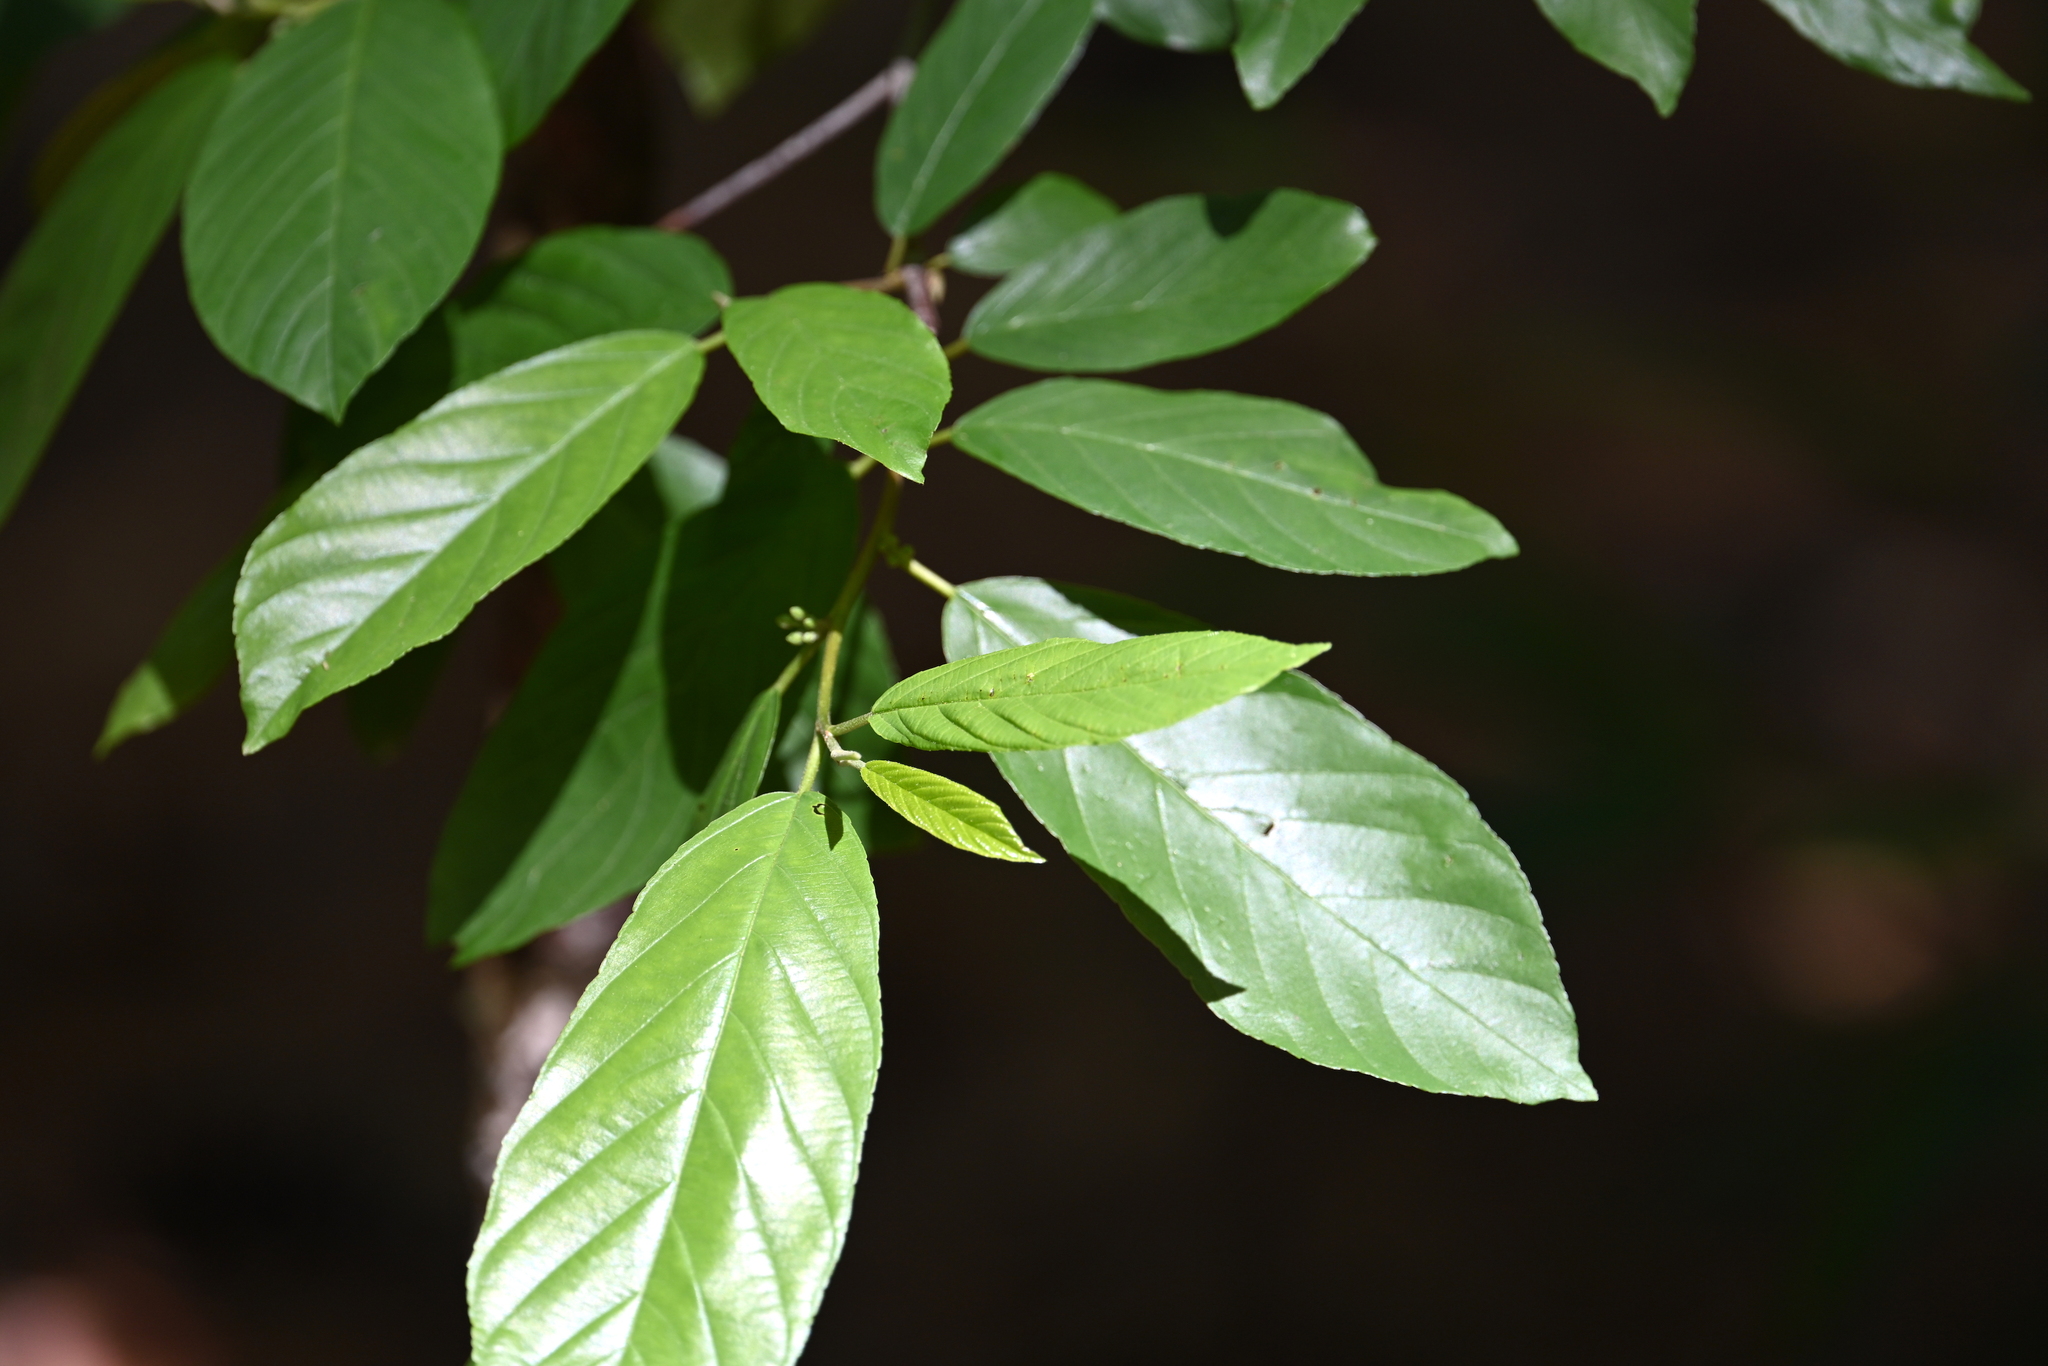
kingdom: Plantae
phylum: Tracheophyta
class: Magnoliopsida
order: Rosales
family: Rhamnaceae
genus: Frangula
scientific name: Frangula caroliniana
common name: Carolina buckthorn
